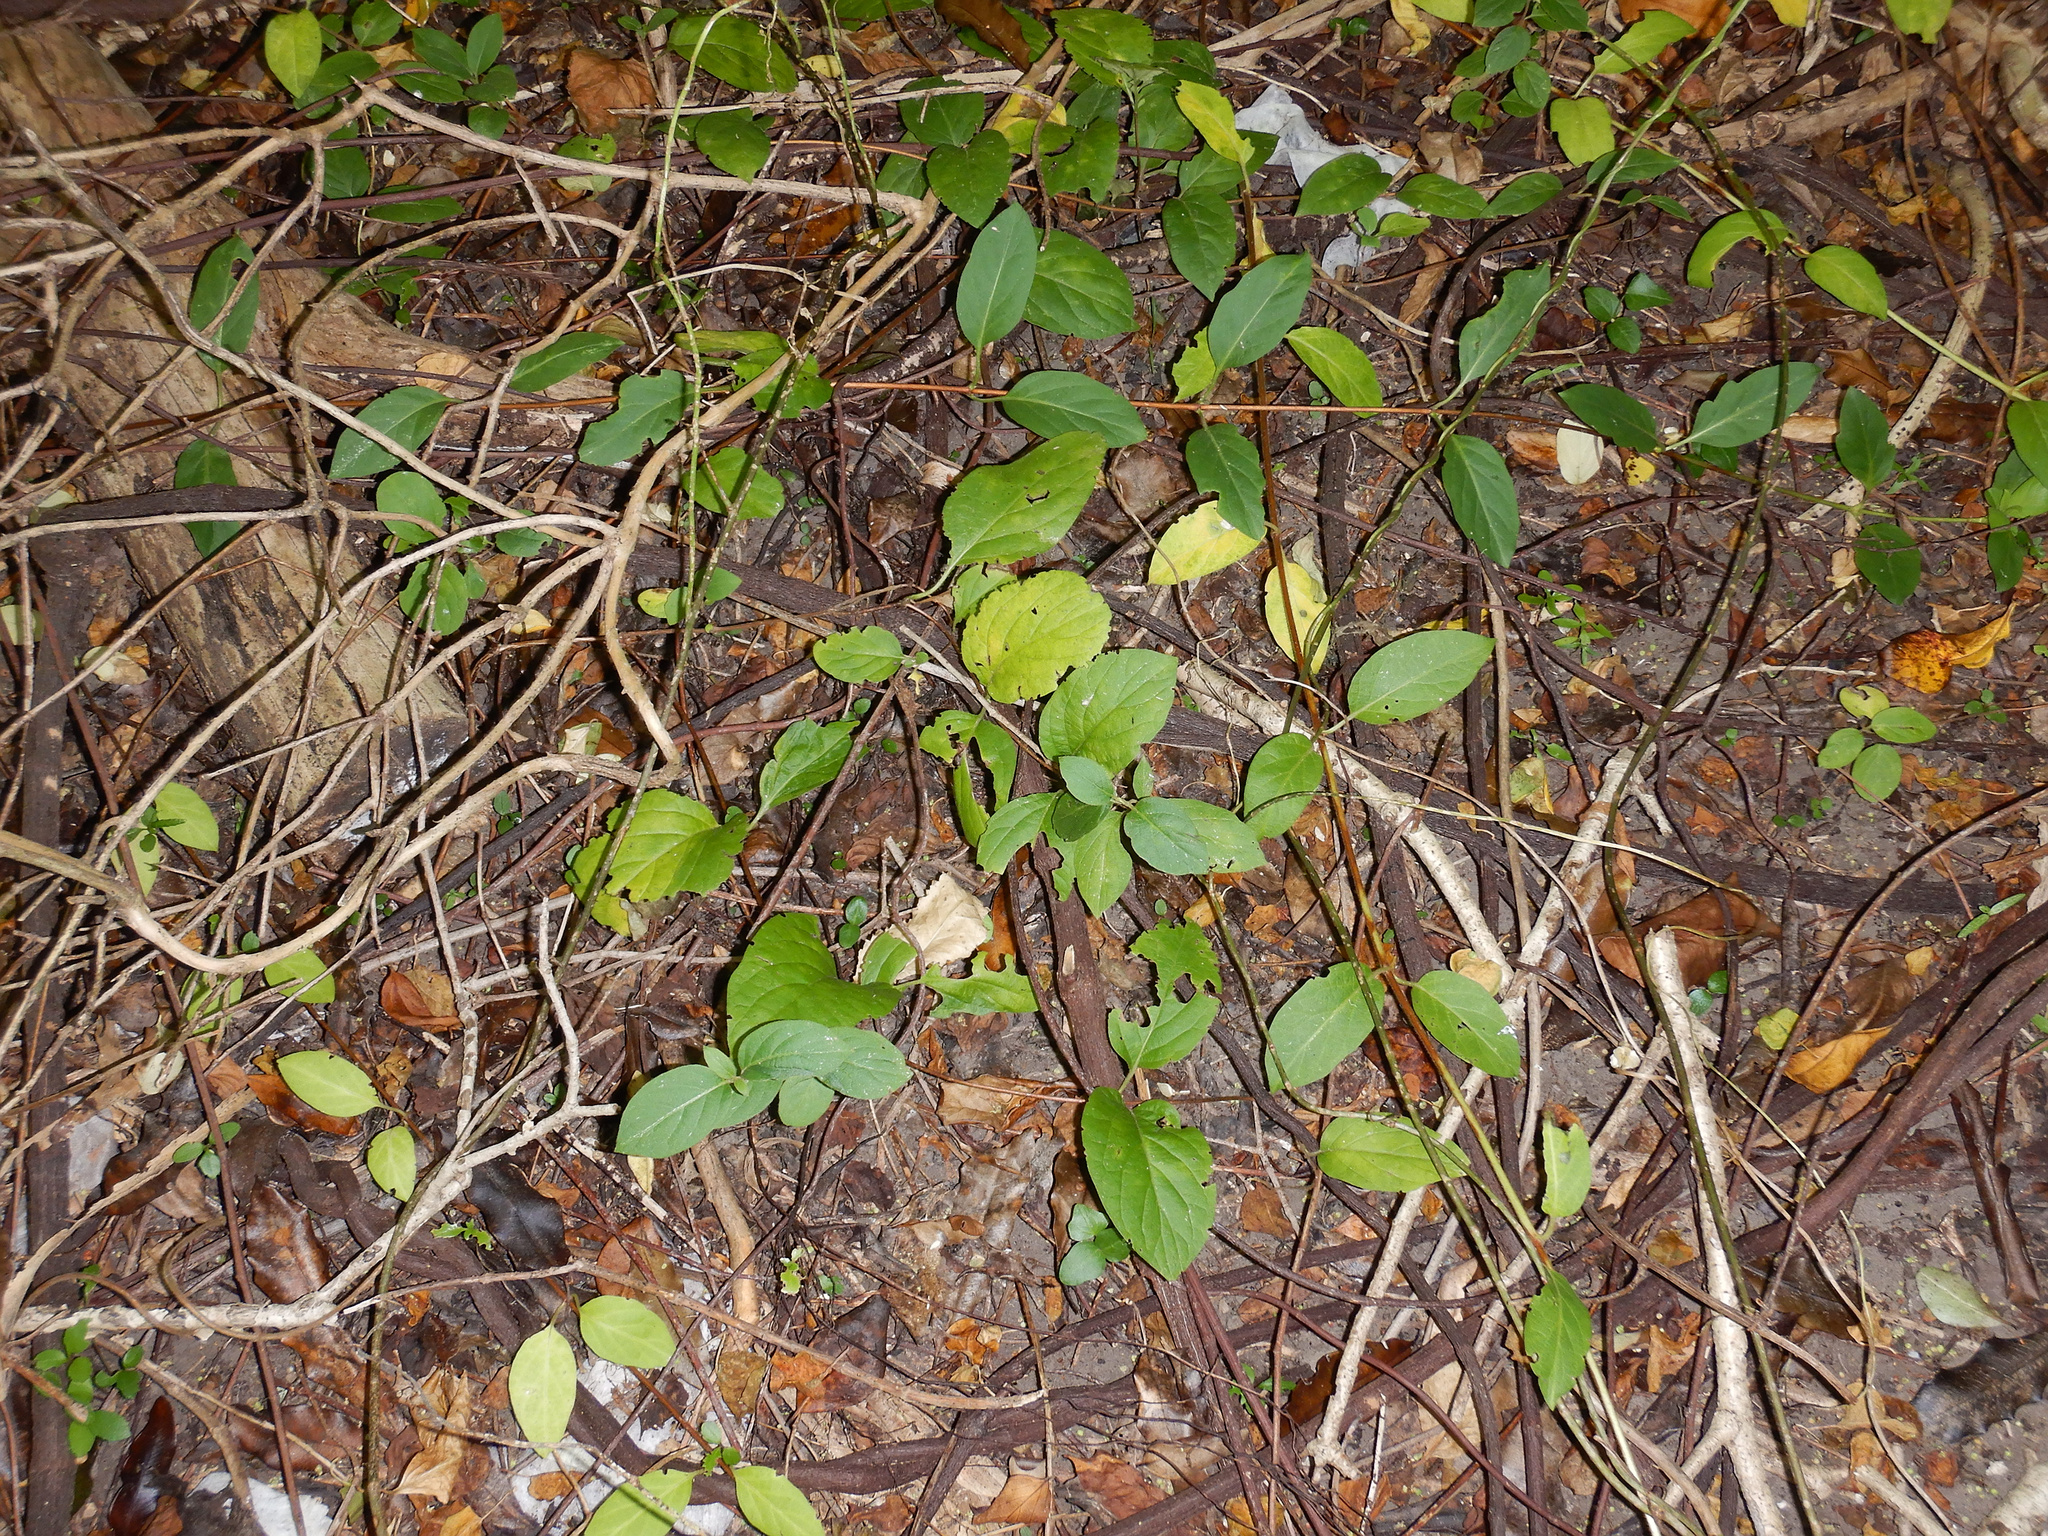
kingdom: Plantae
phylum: Tracheophyta
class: Magnoliopsida
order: Dipsacales
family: Caprifoliaceae
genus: Lonicera
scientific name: Lonicera japonica
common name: Japanese honeysuckle
